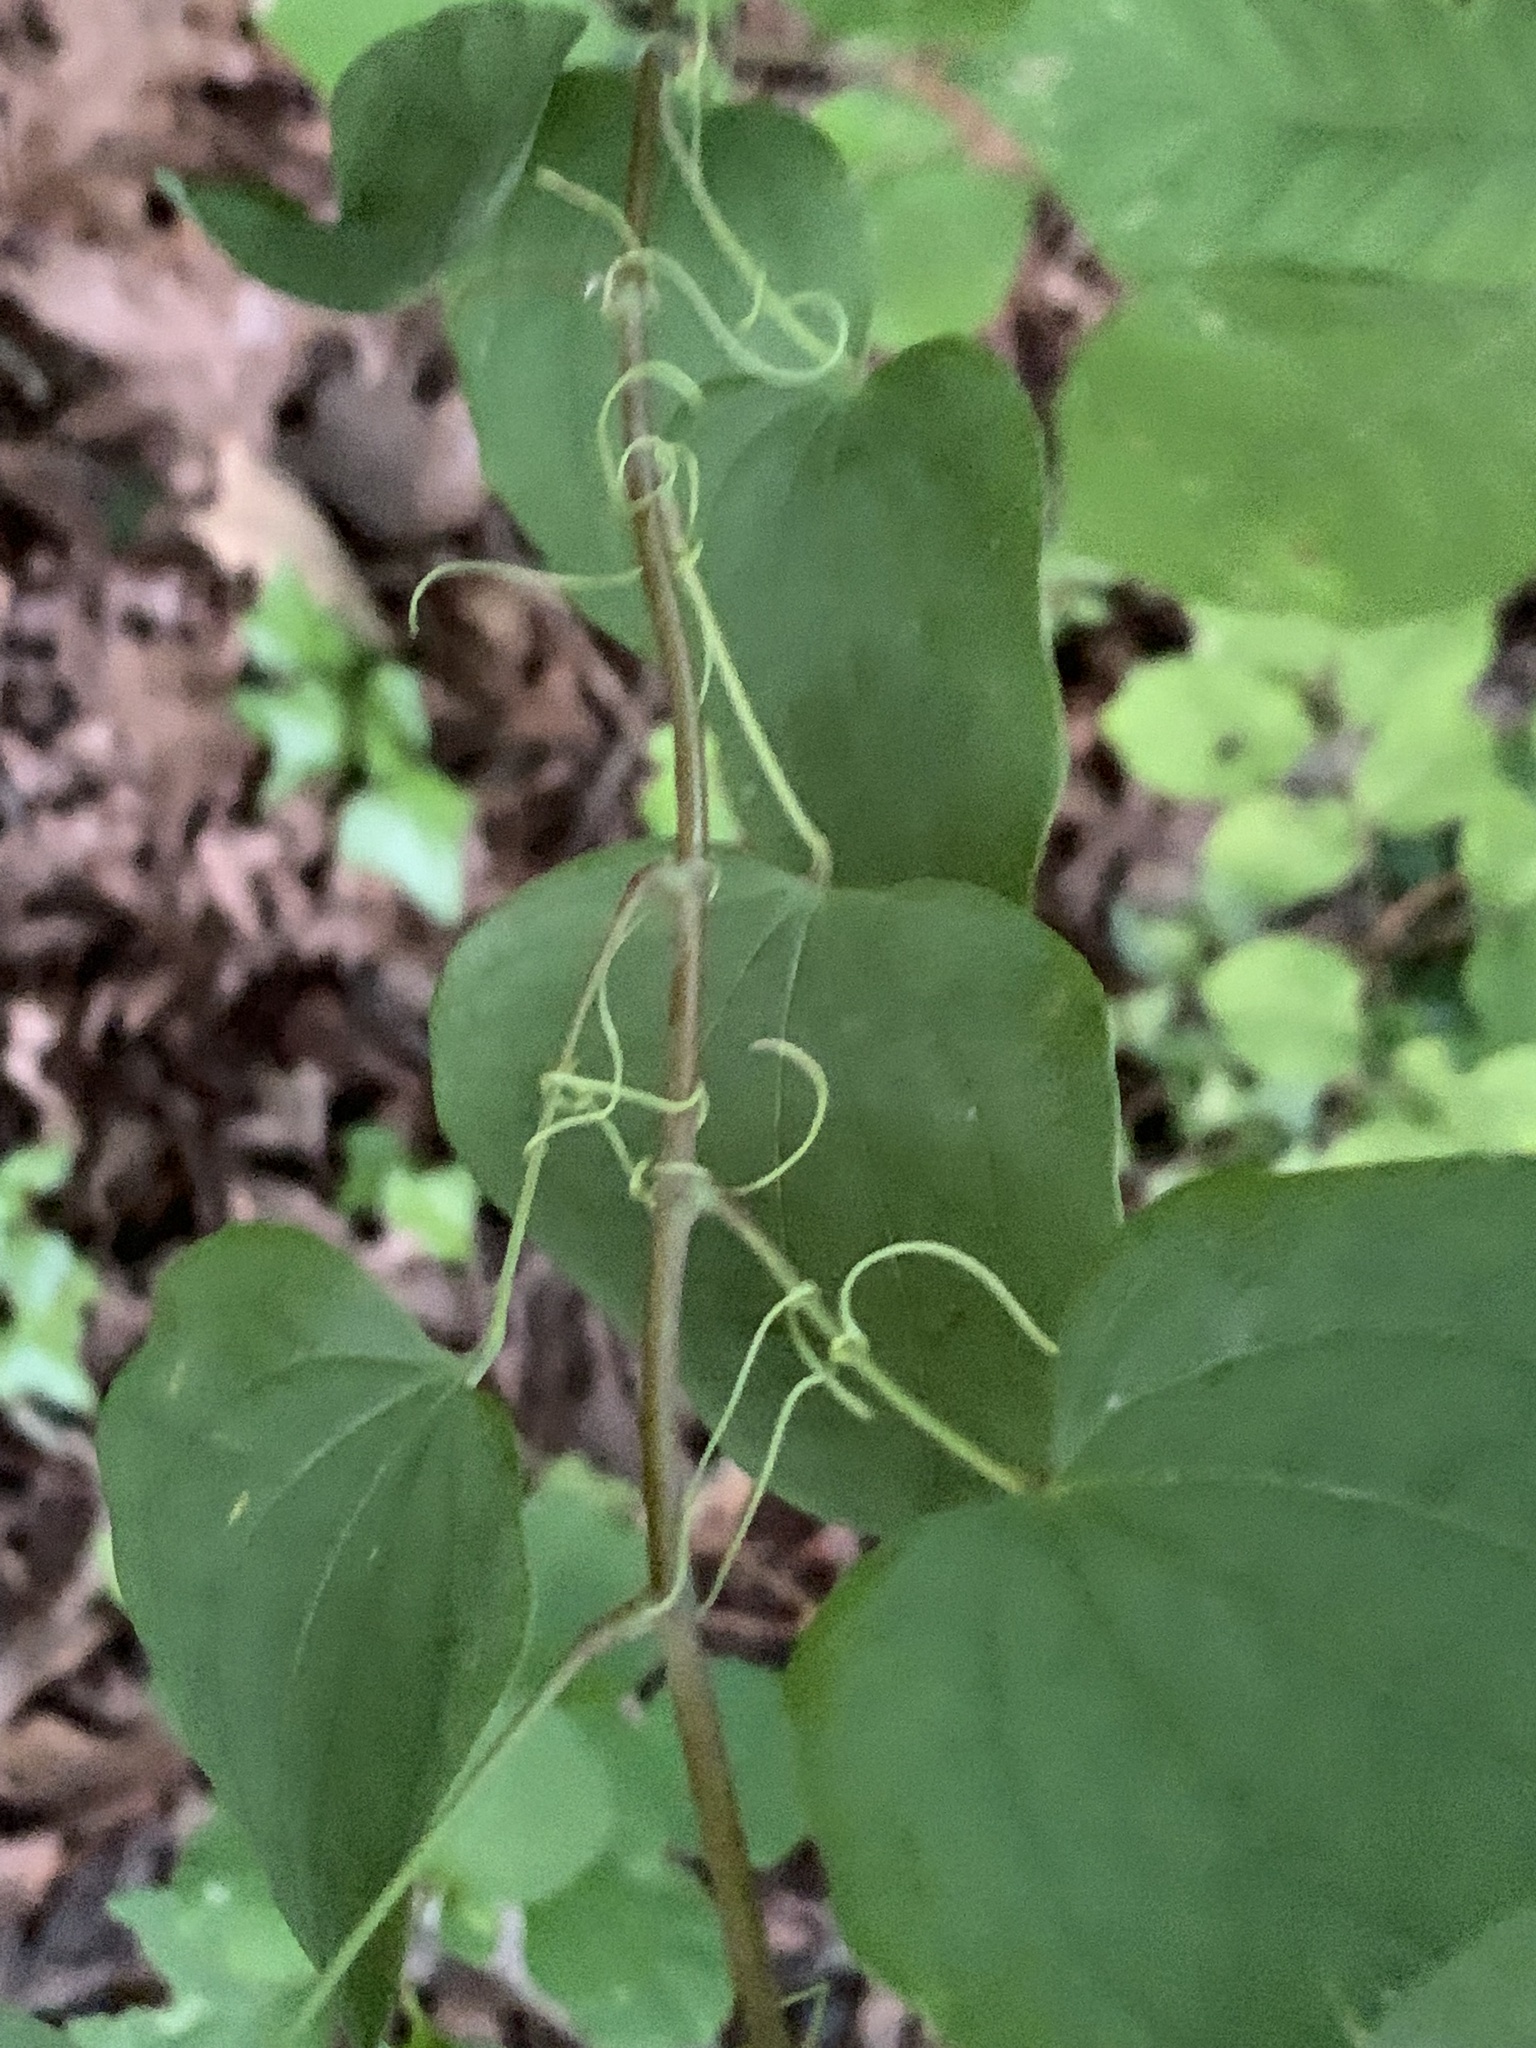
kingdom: Plantae
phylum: Tracheophyta
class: Liliopsida
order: Liliales
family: Smilacaceae
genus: Smilax
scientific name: Smilax herbacea
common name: Jacob's-ladder
